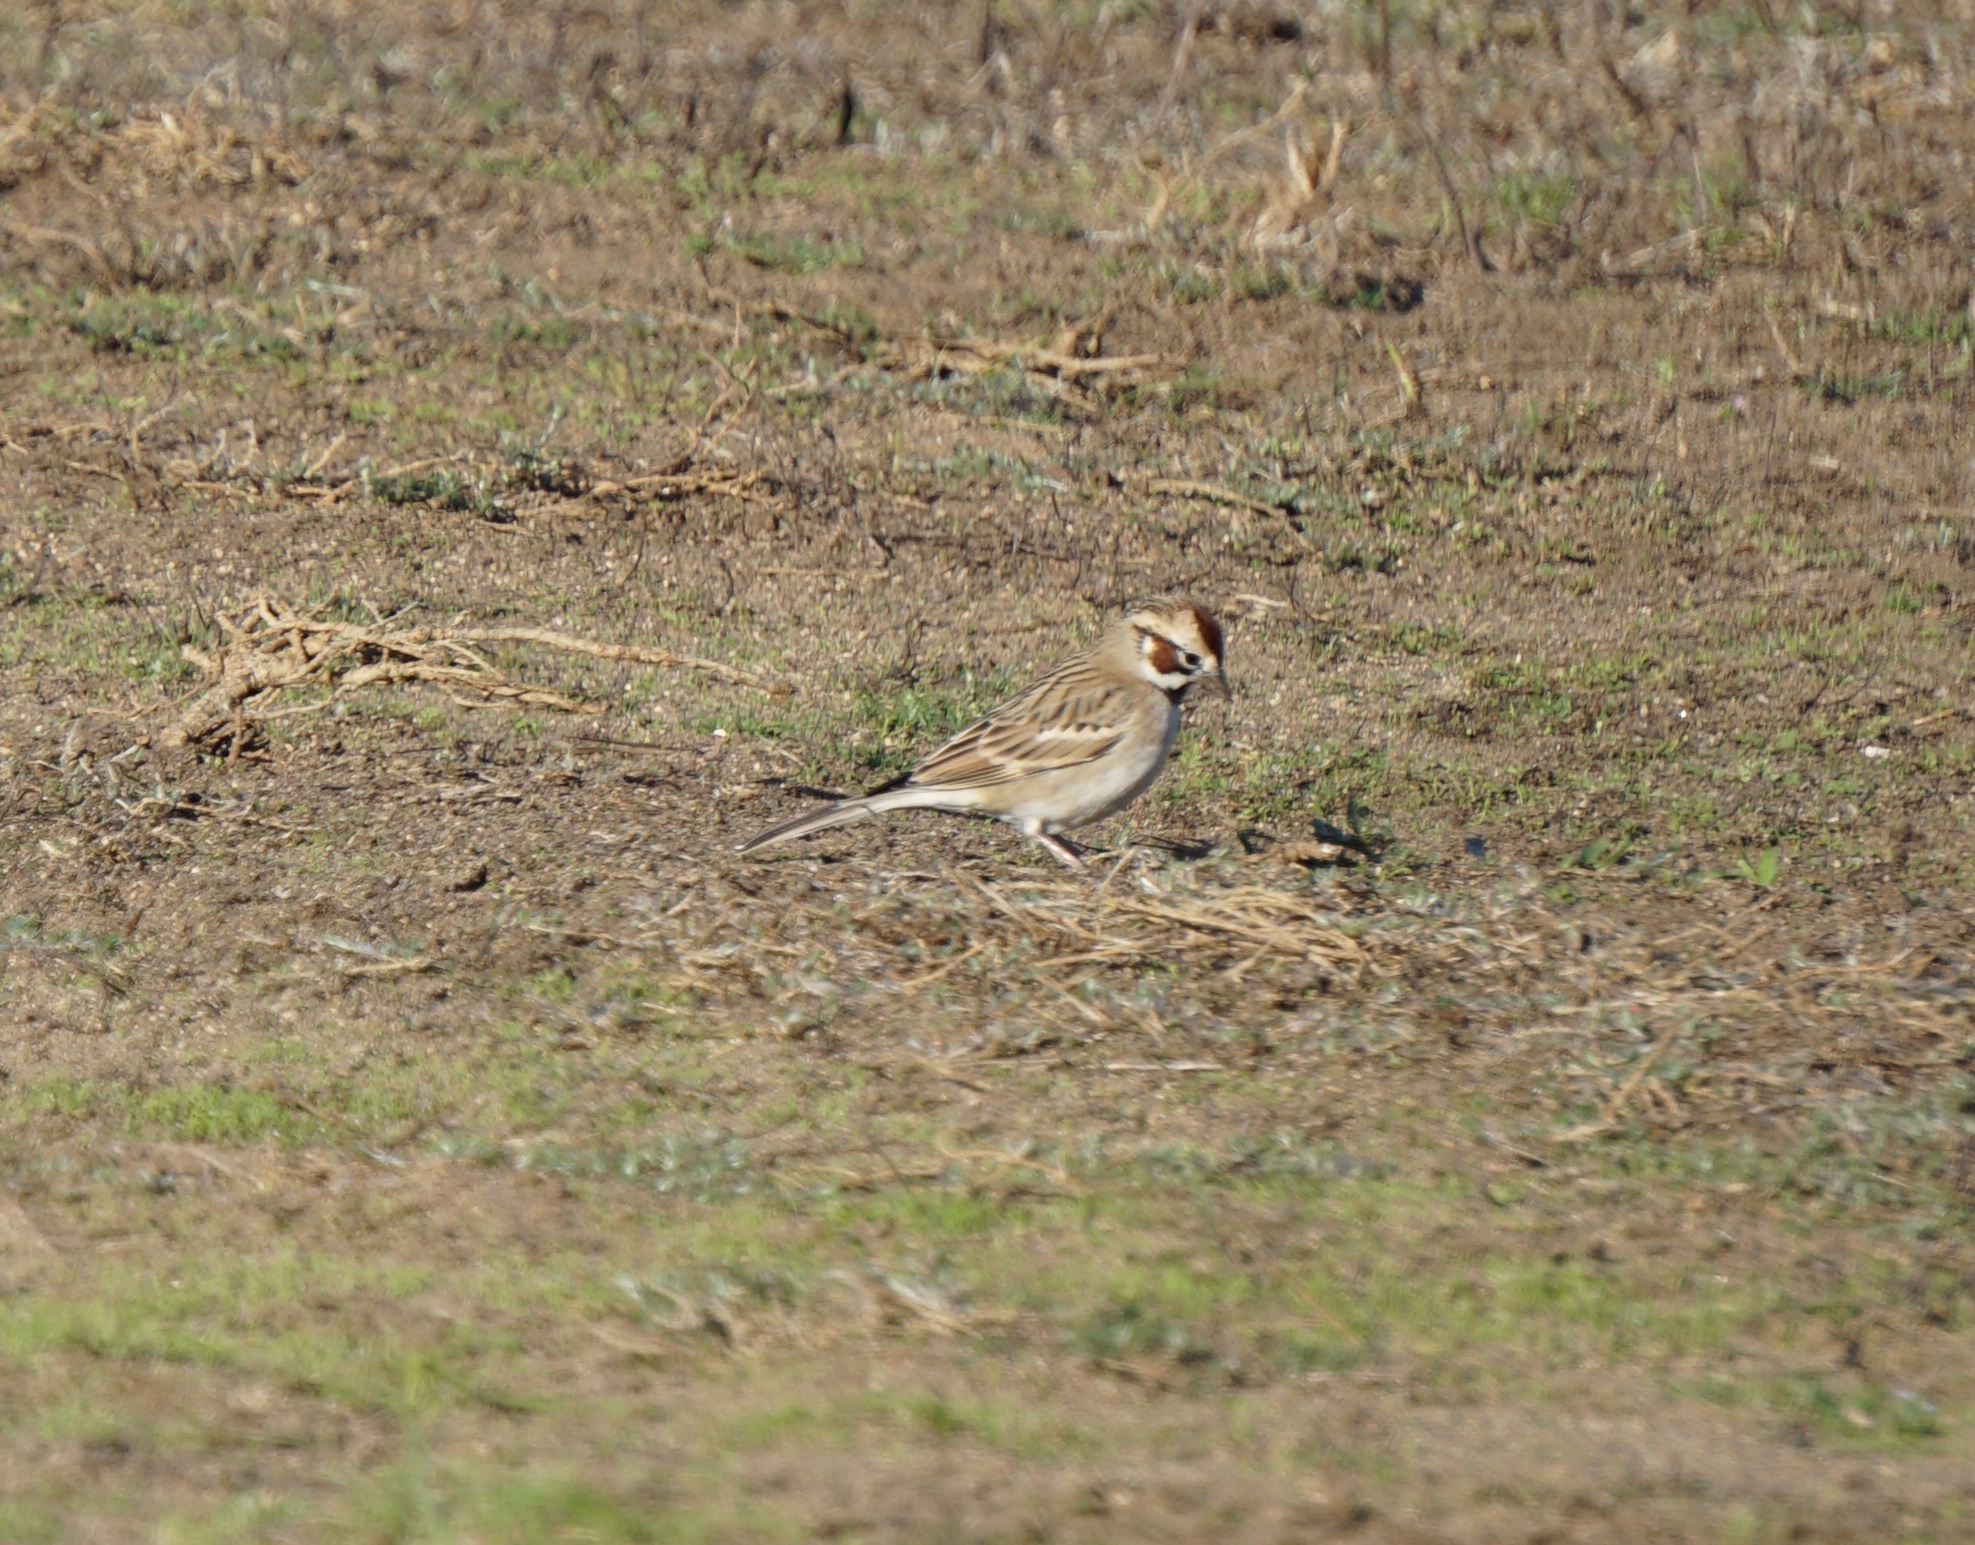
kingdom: Animalia
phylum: Chordata
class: Aves
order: Passeriformes
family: Passerellidae
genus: Chondestes
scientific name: Chondestes grammacus
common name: Lark sparrow
